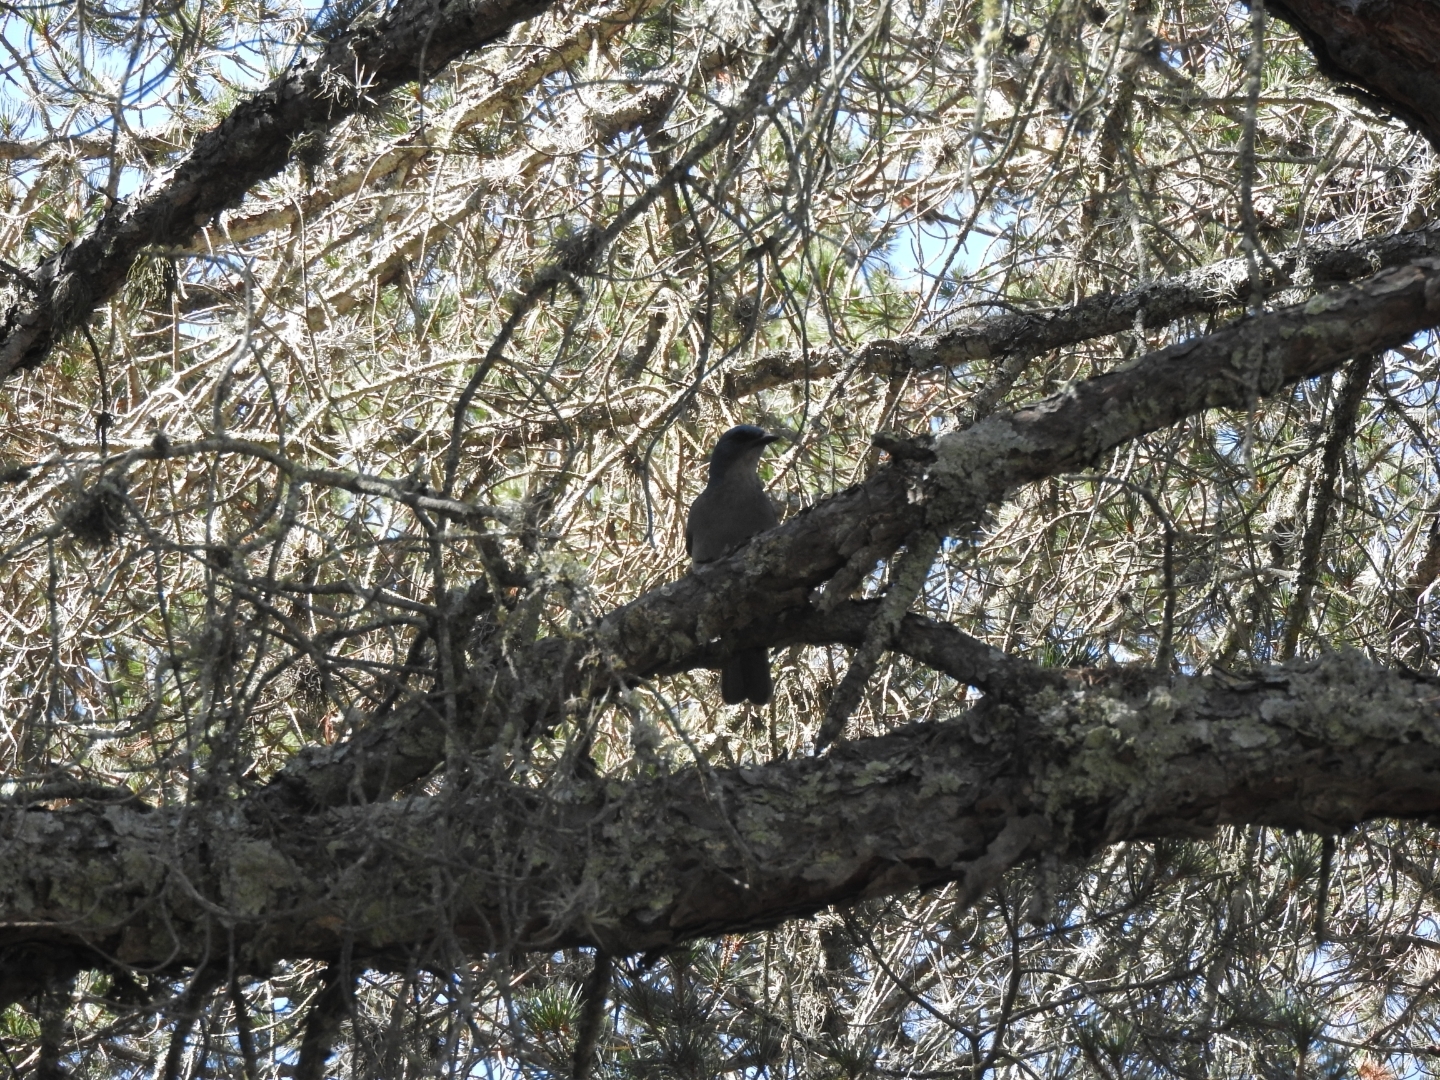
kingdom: Animalia
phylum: Chordata
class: Aves
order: Passeriformes
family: Corvidae
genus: Aphelocoma
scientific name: Aphelocoma woodhouseii
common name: Woodhouse's scrub-jay
